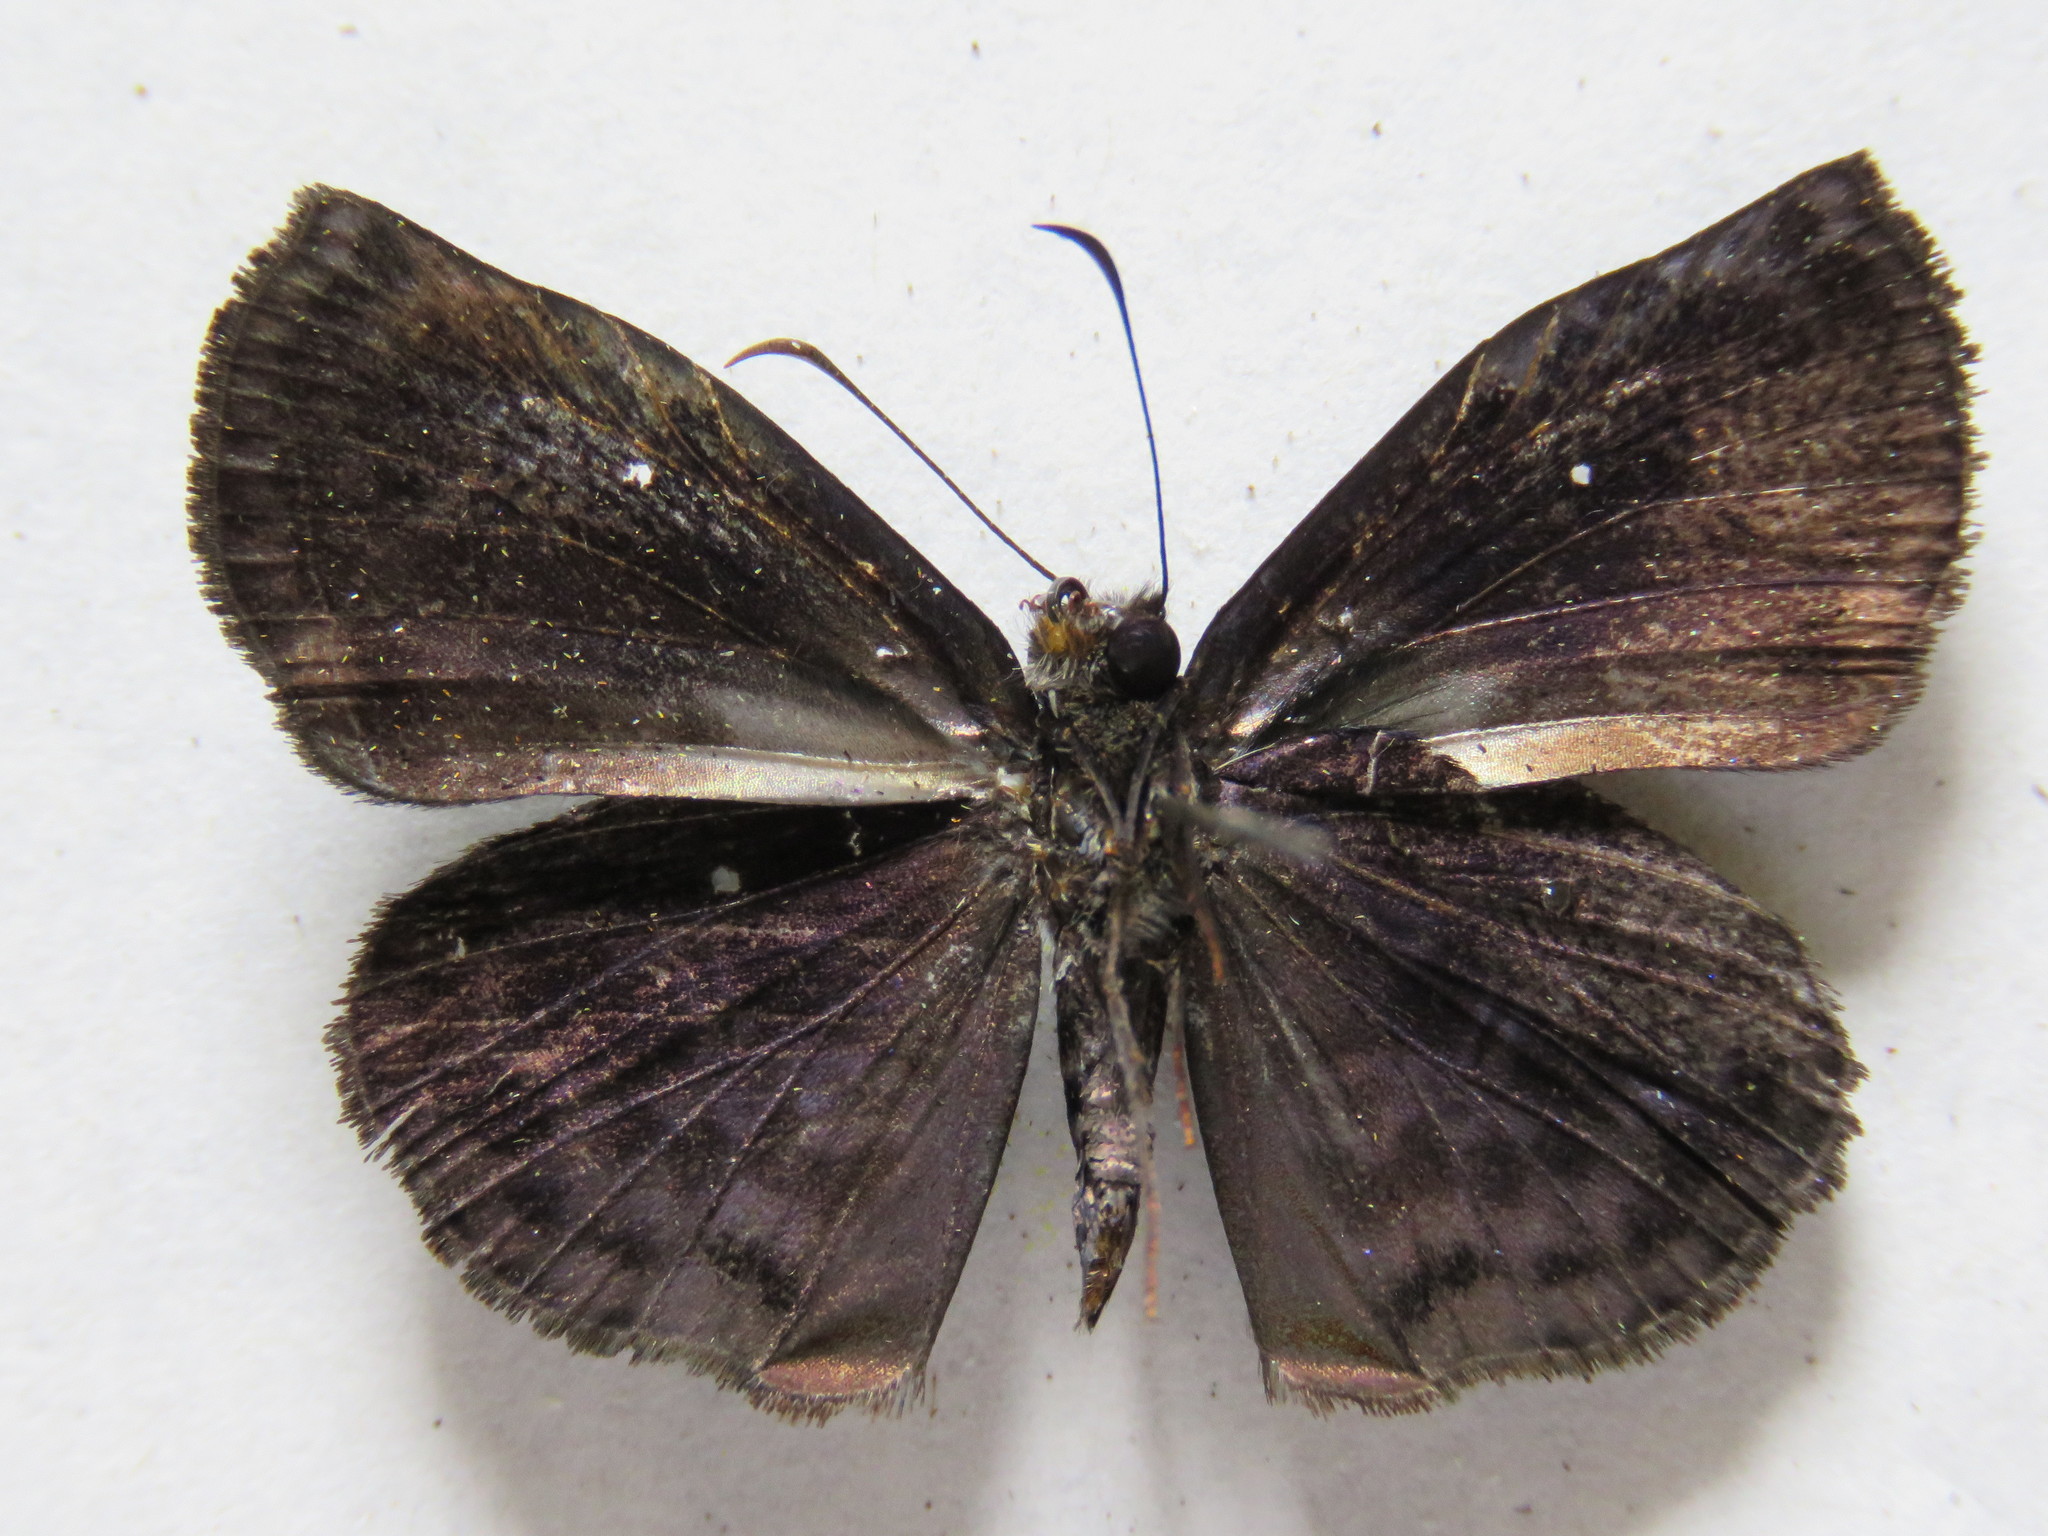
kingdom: Animalia
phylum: Arthropoda
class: Insecta
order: Lepidoptera
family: Hesperiidae
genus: Cycloglypha
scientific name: Cycloglypha thrasibulus
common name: Widespread bent-skipper
